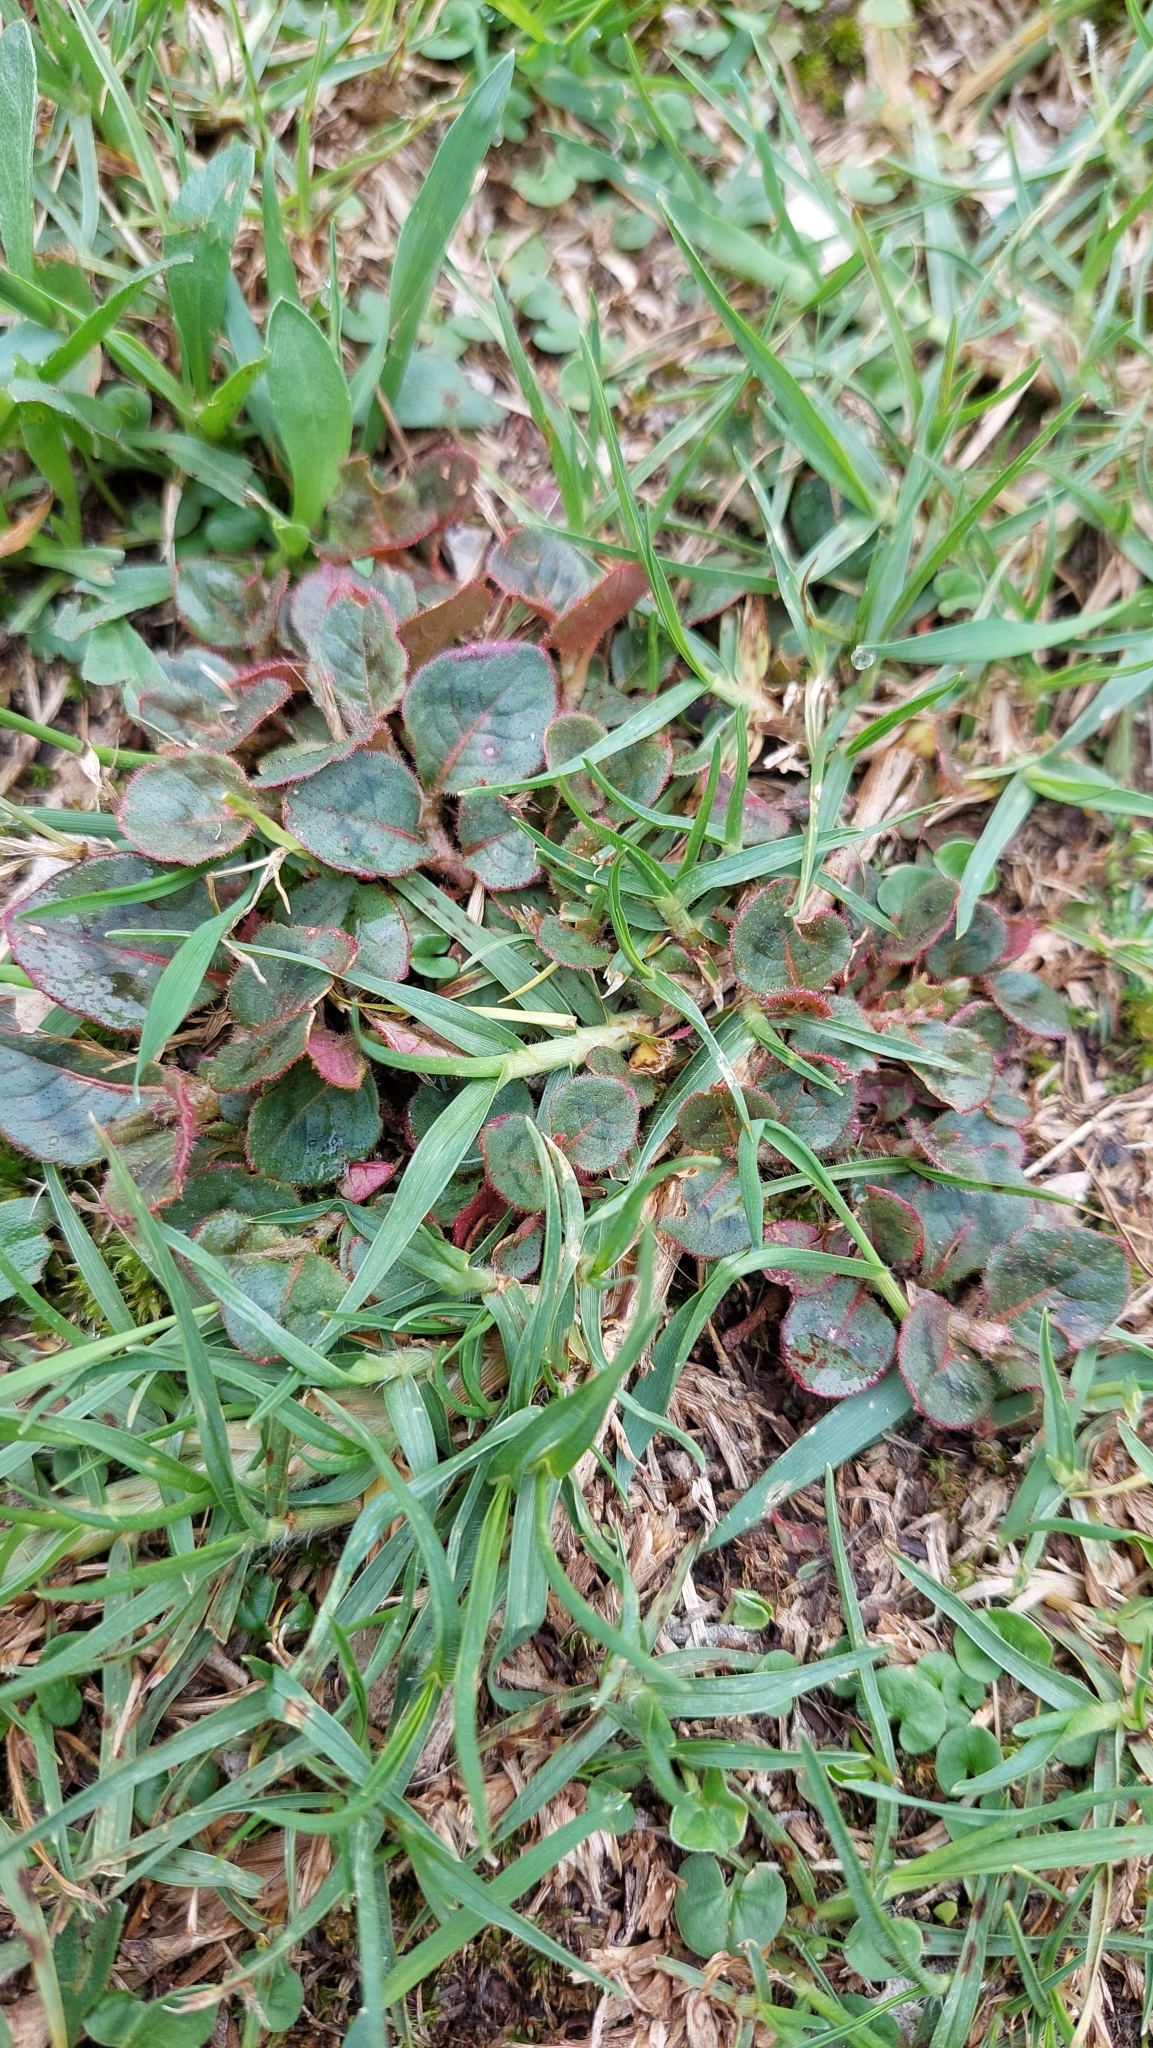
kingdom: Plantae
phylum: Tracheophyta
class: Magnoliopsida
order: Caryophyllales
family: Polygonaceae
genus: Persicaria
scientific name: Persicaria capitata
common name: Pinkhead smartweed
